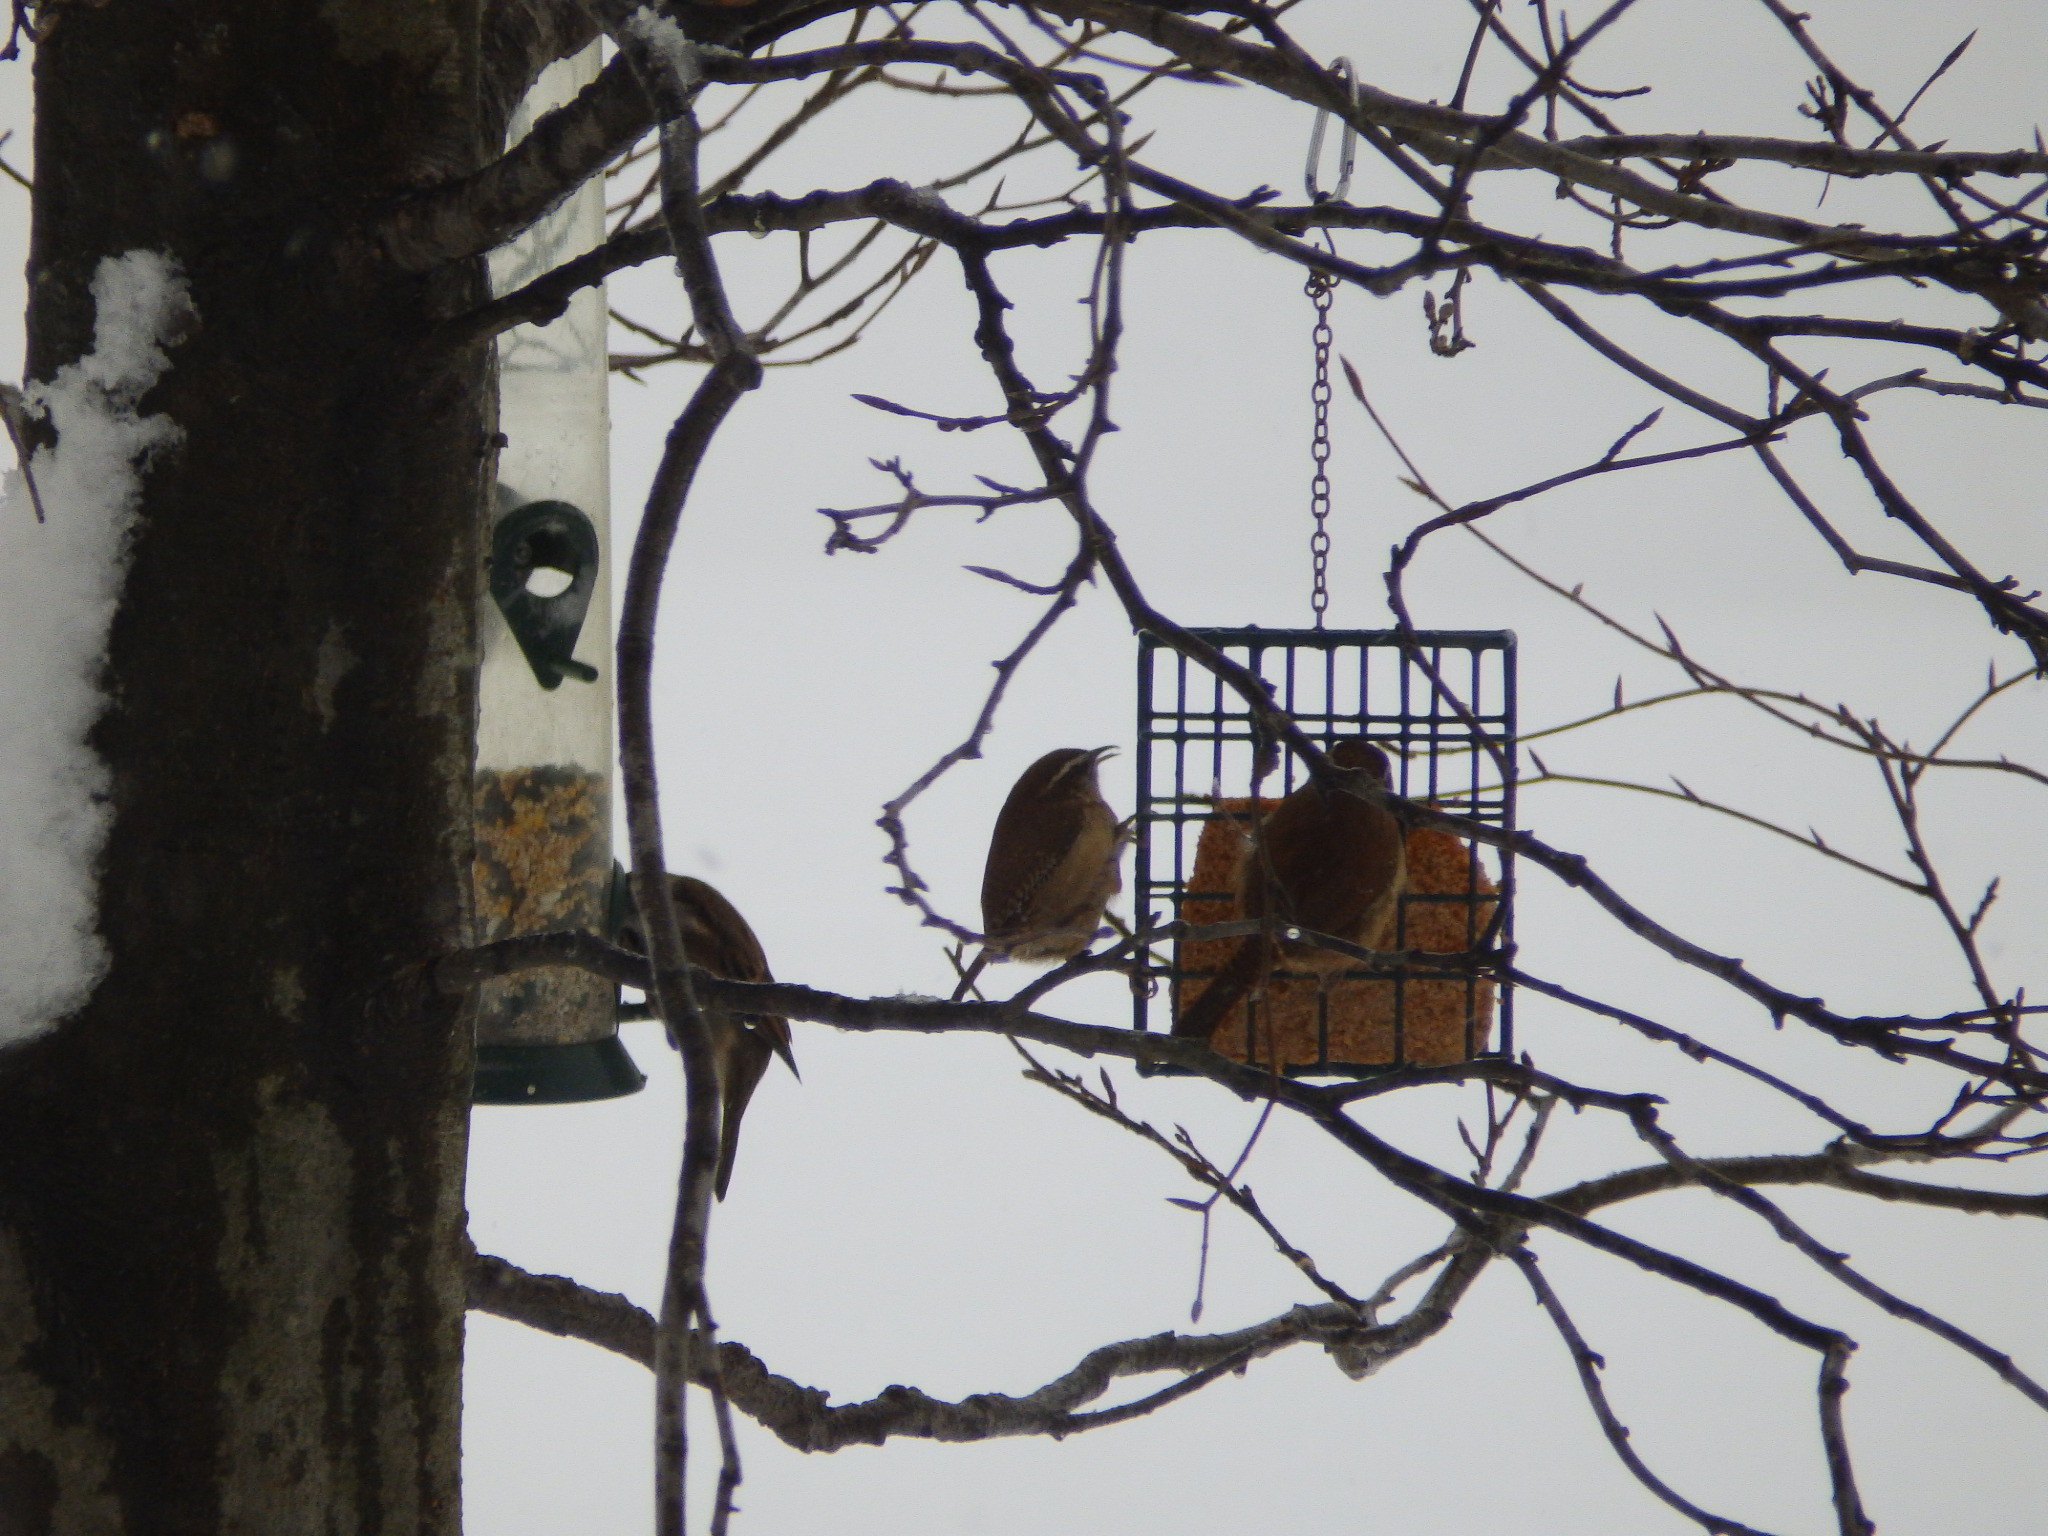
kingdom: Animalia
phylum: Chordata
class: Aves
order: Passeriformes
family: Troglodytidae
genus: Thryothorus
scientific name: Thryothorus ludovicianus
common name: Carolina wren
